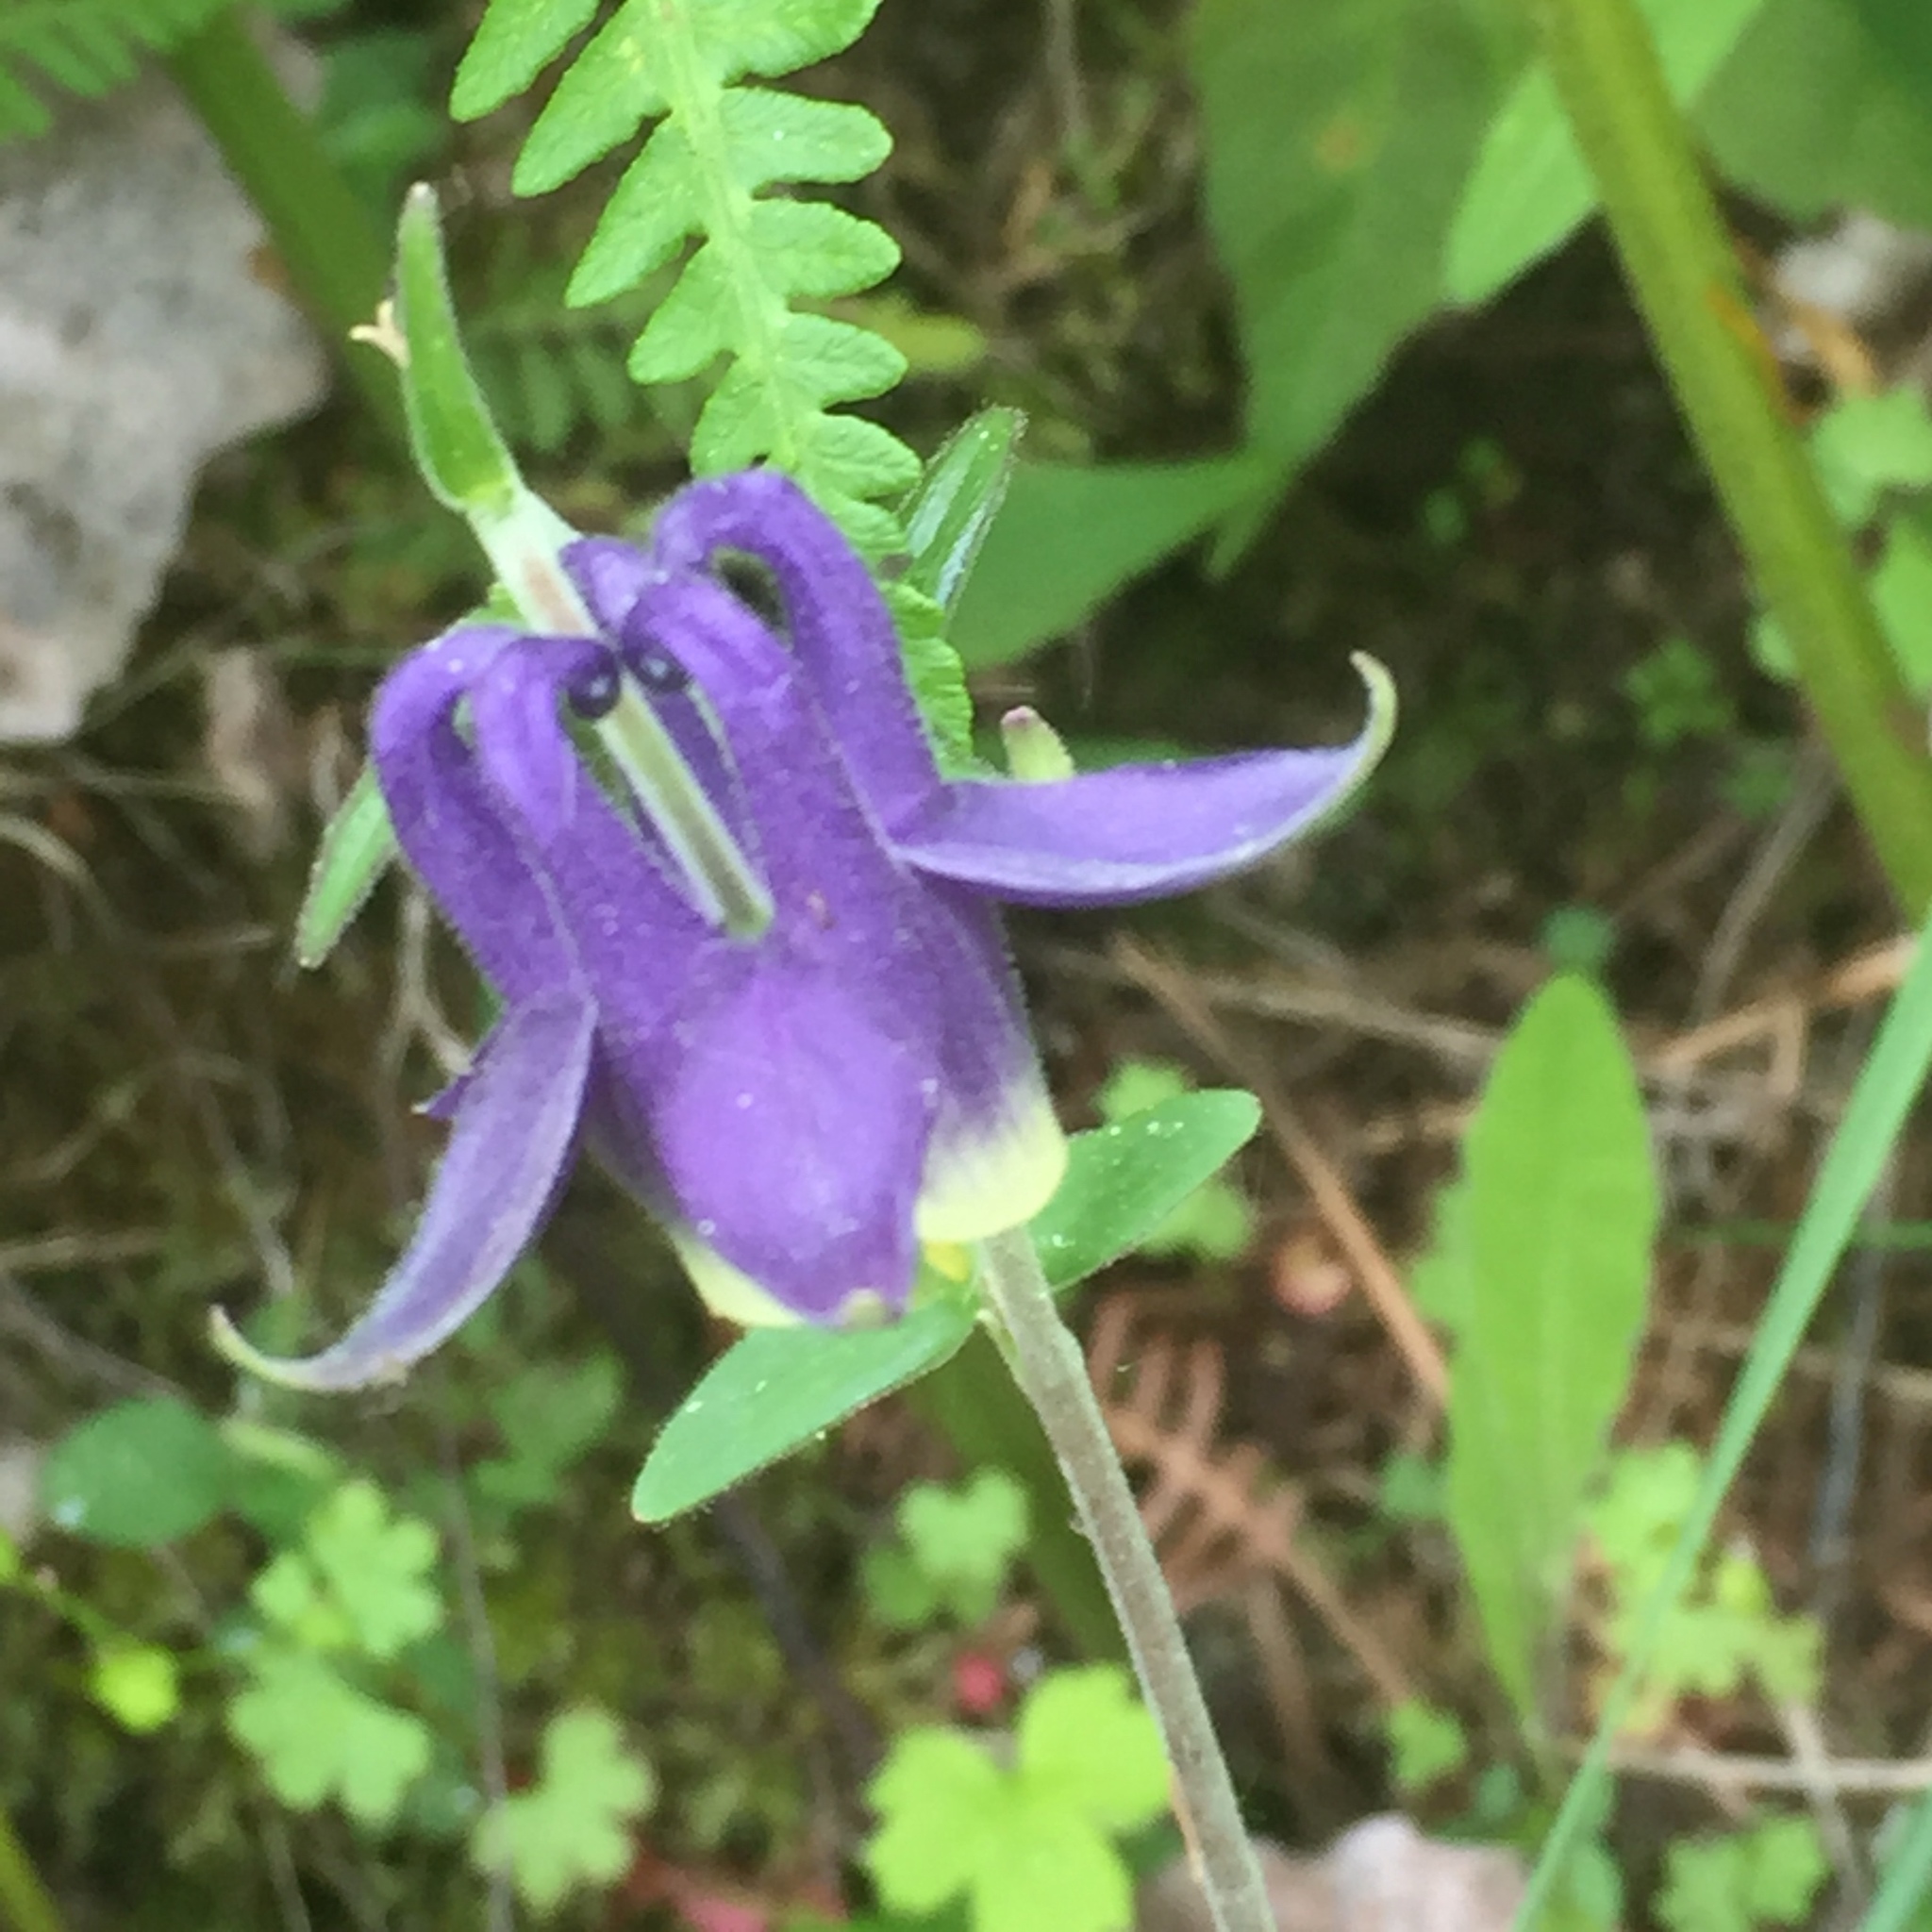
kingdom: Plantae
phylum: Tracheophyta
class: Magnoliopsida
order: Ranunculales
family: Ranunculaceae
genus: Aquilegia
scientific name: Aquilegia vulgaris
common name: Columbine
